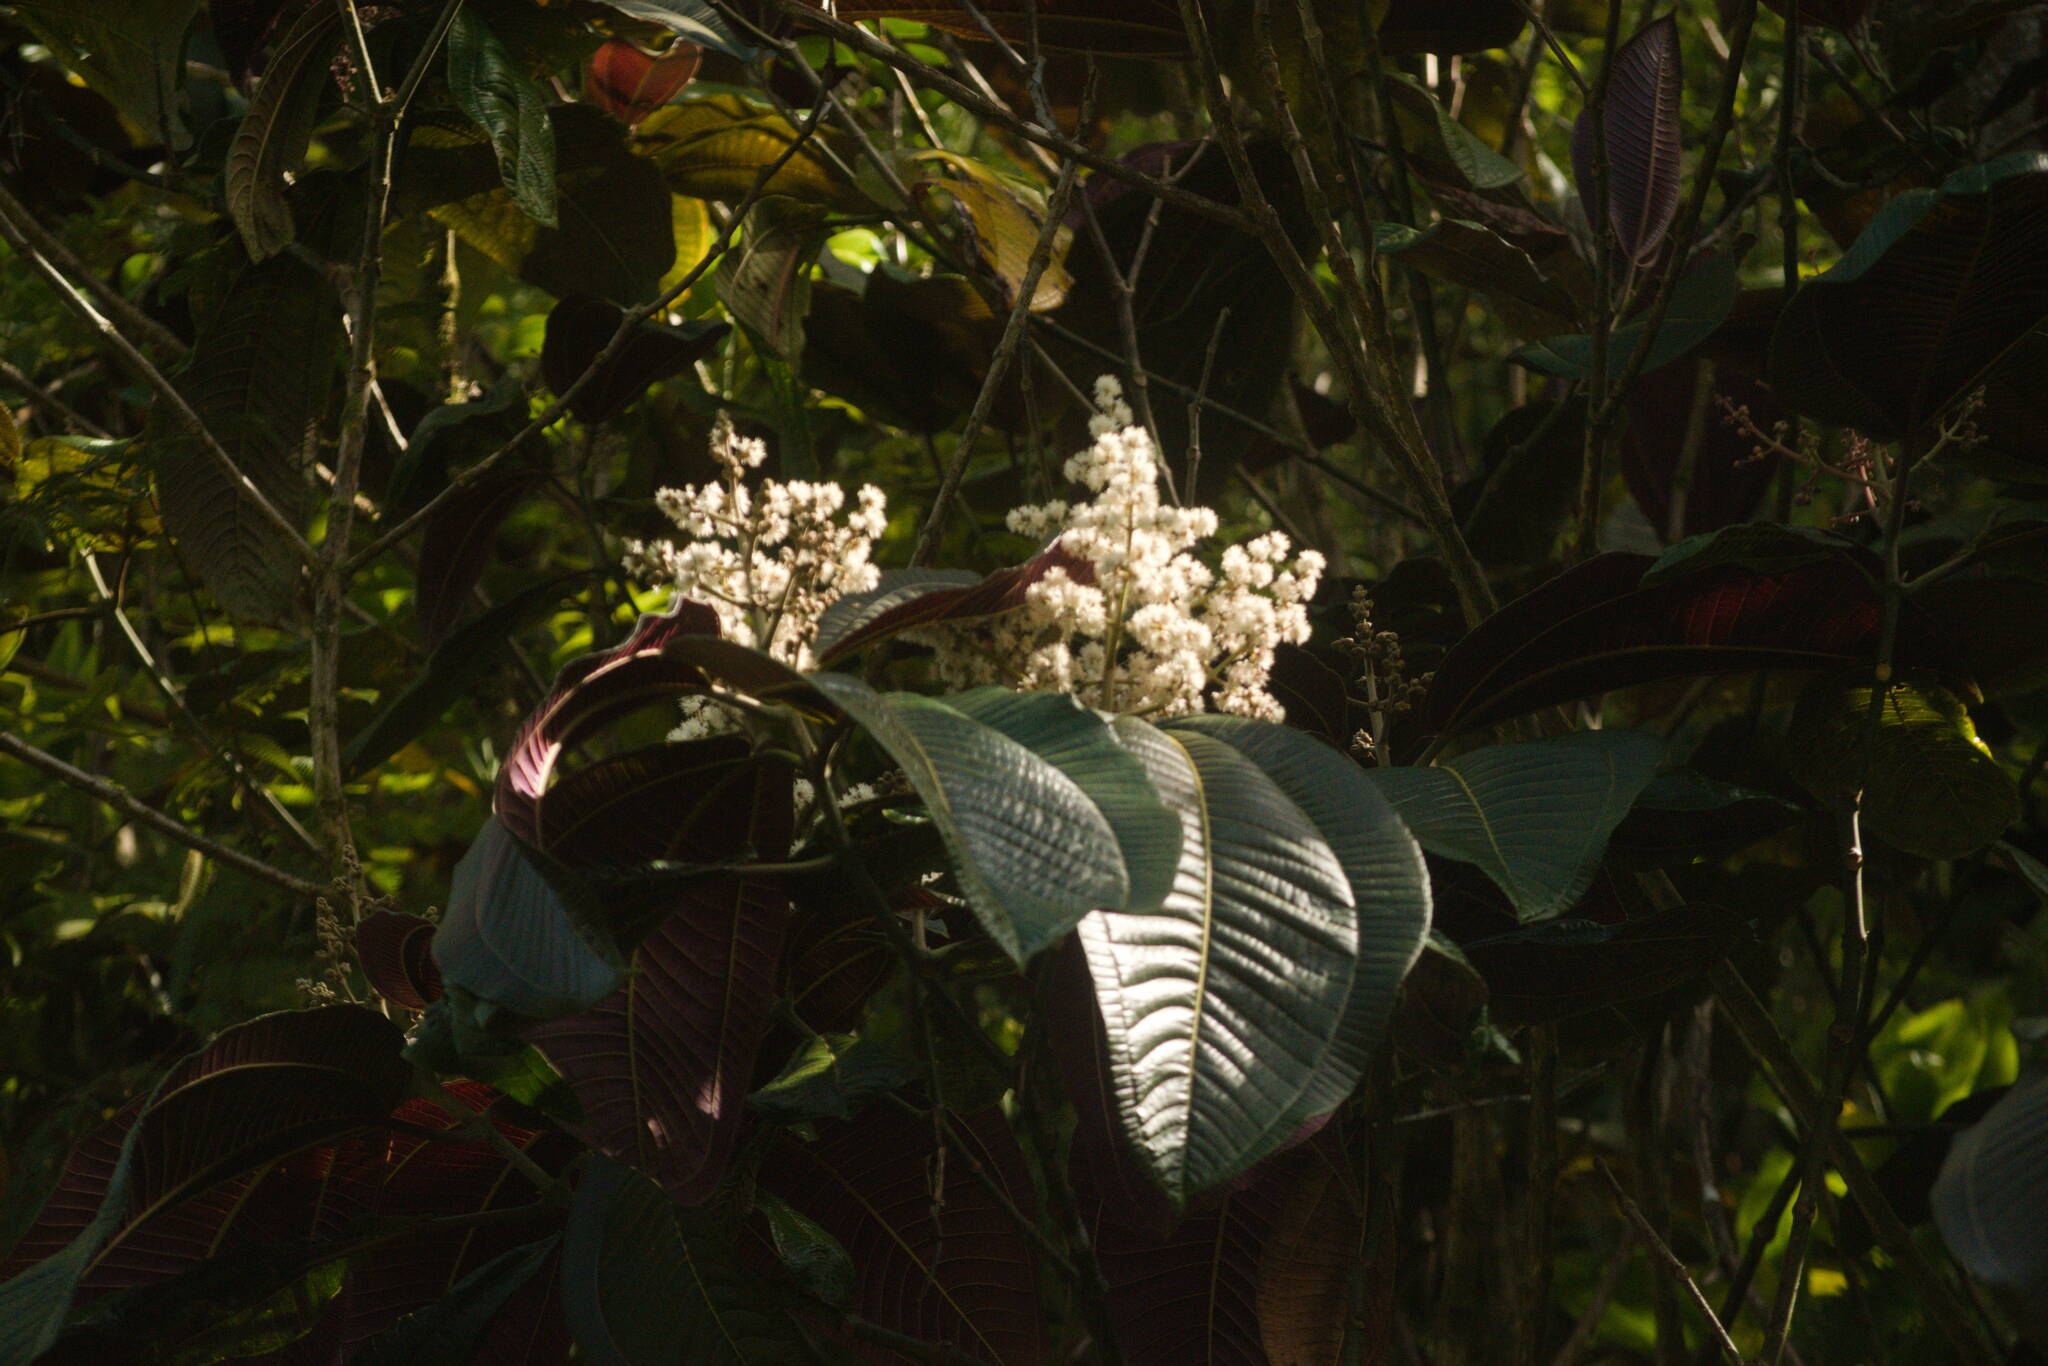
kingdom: Plantae
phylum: Tracheophyta
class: Magnoliopsida
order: Myrtales
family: Melastomataceae
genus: Miconia
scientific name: Miconia calvescens
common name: Purple plague
